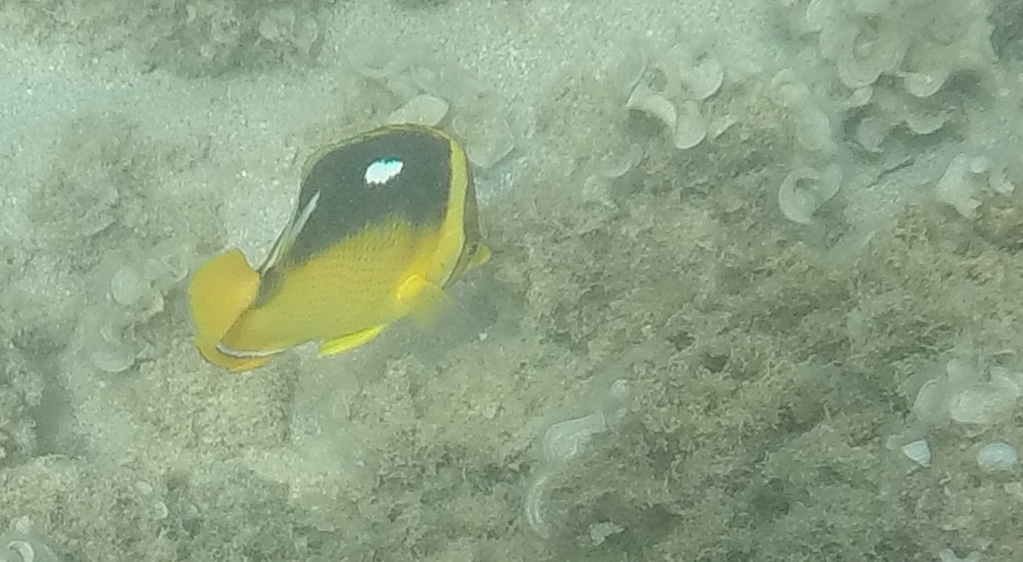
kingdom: Animalia
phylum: Chordata
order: Perciformes
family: Chaetodontidae
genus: Chaetodon
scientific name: Chaetodon quadrimaculatus
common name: Fourspot butterflyfish
